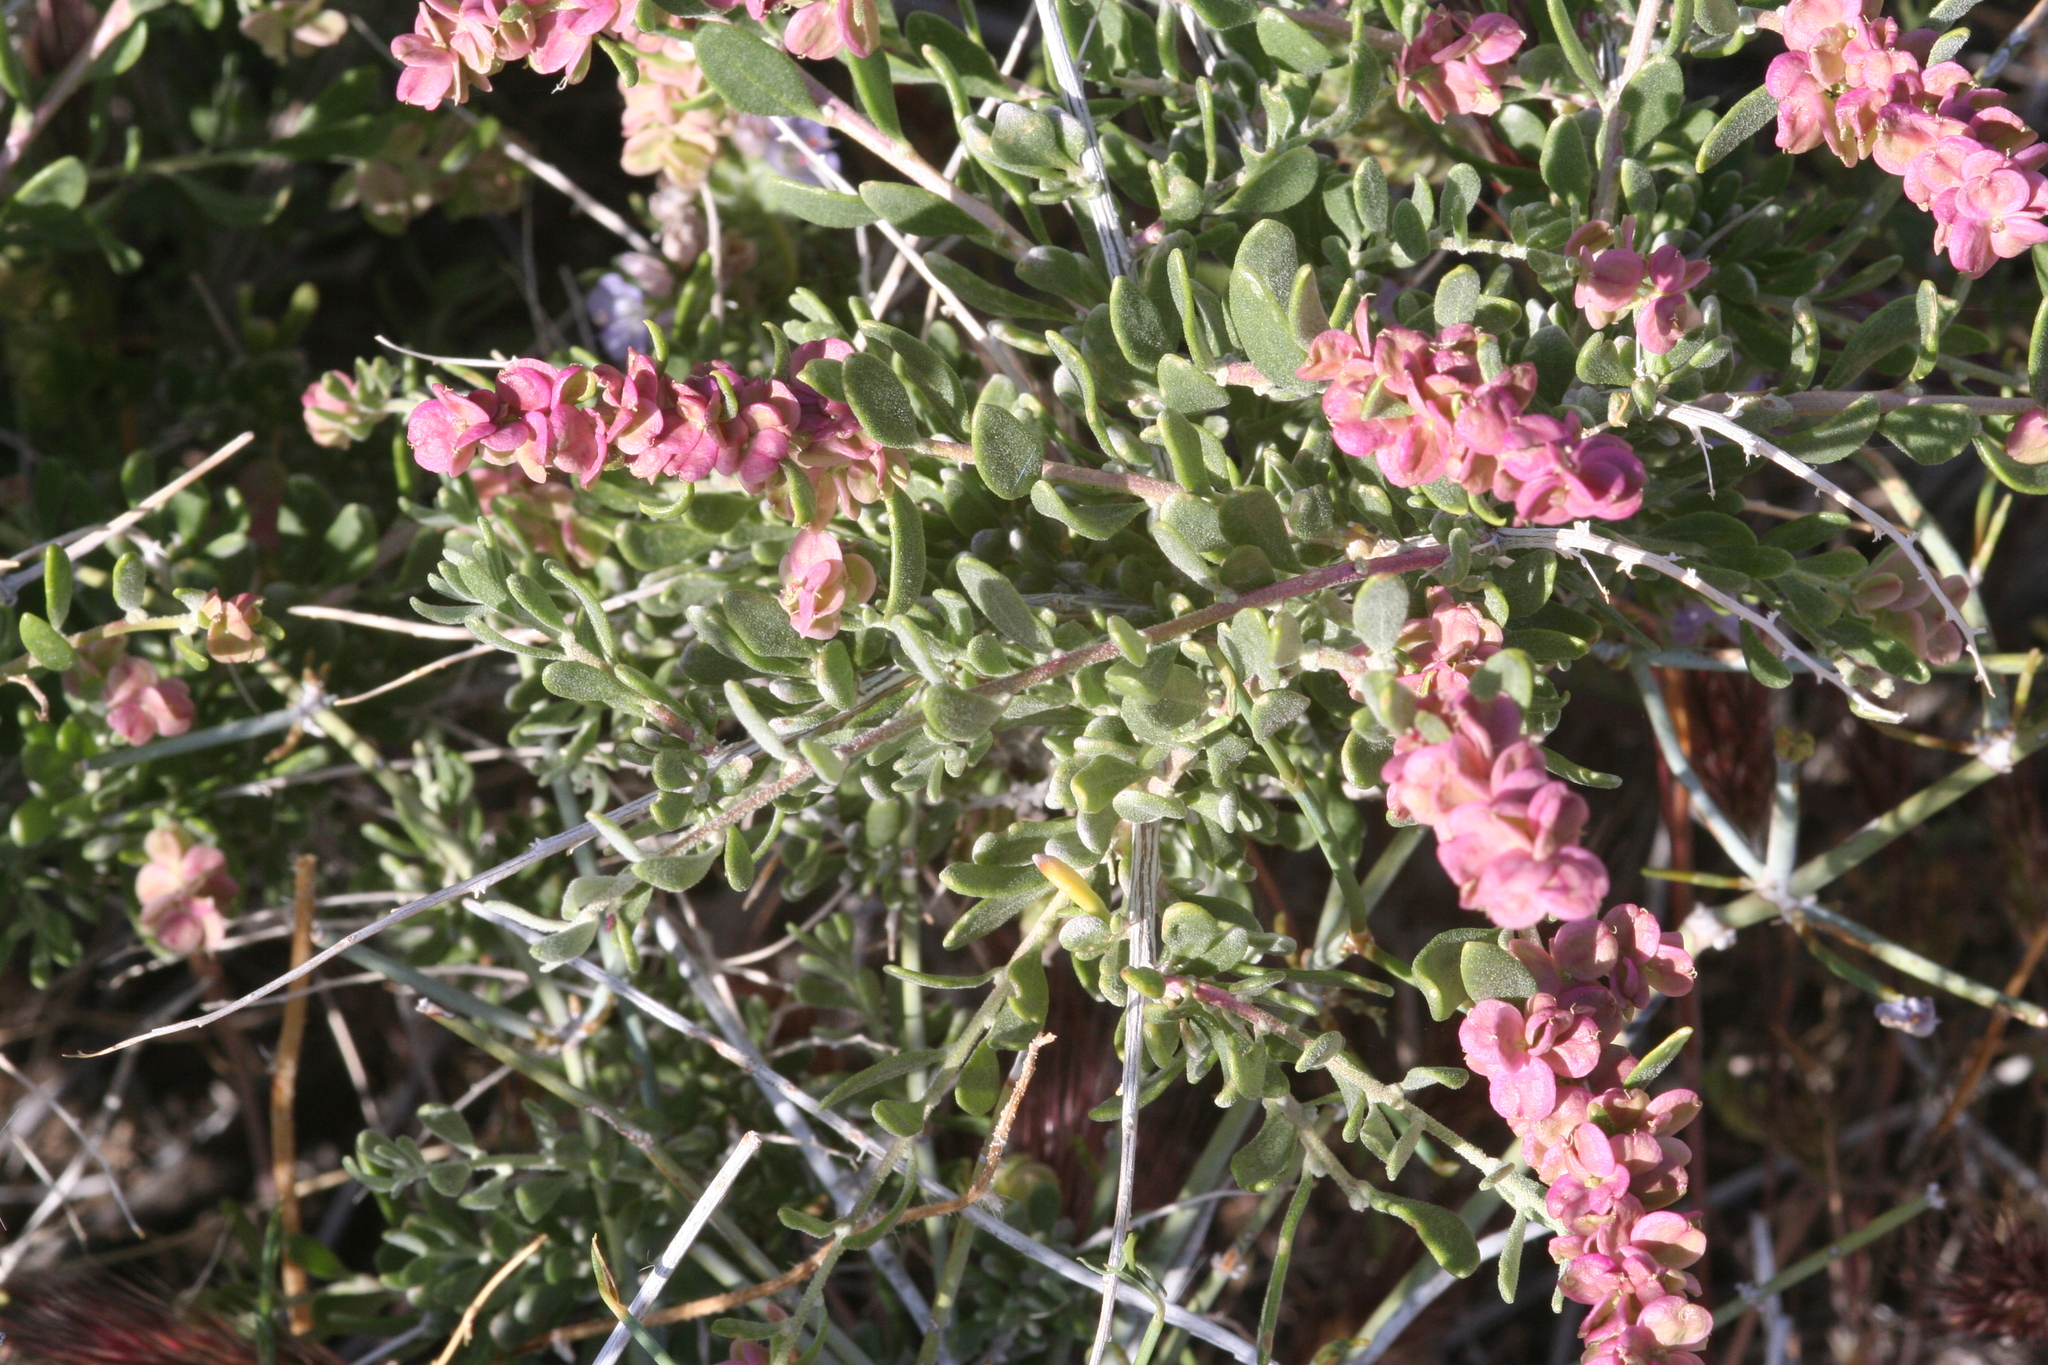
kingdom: Plantae
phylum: Tracheophyta
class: Magnoliopsida
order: Caryophyllales
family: Amaranthaceae
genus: Grayia
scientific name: Grayia spinosa
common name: Spiny hopsage
